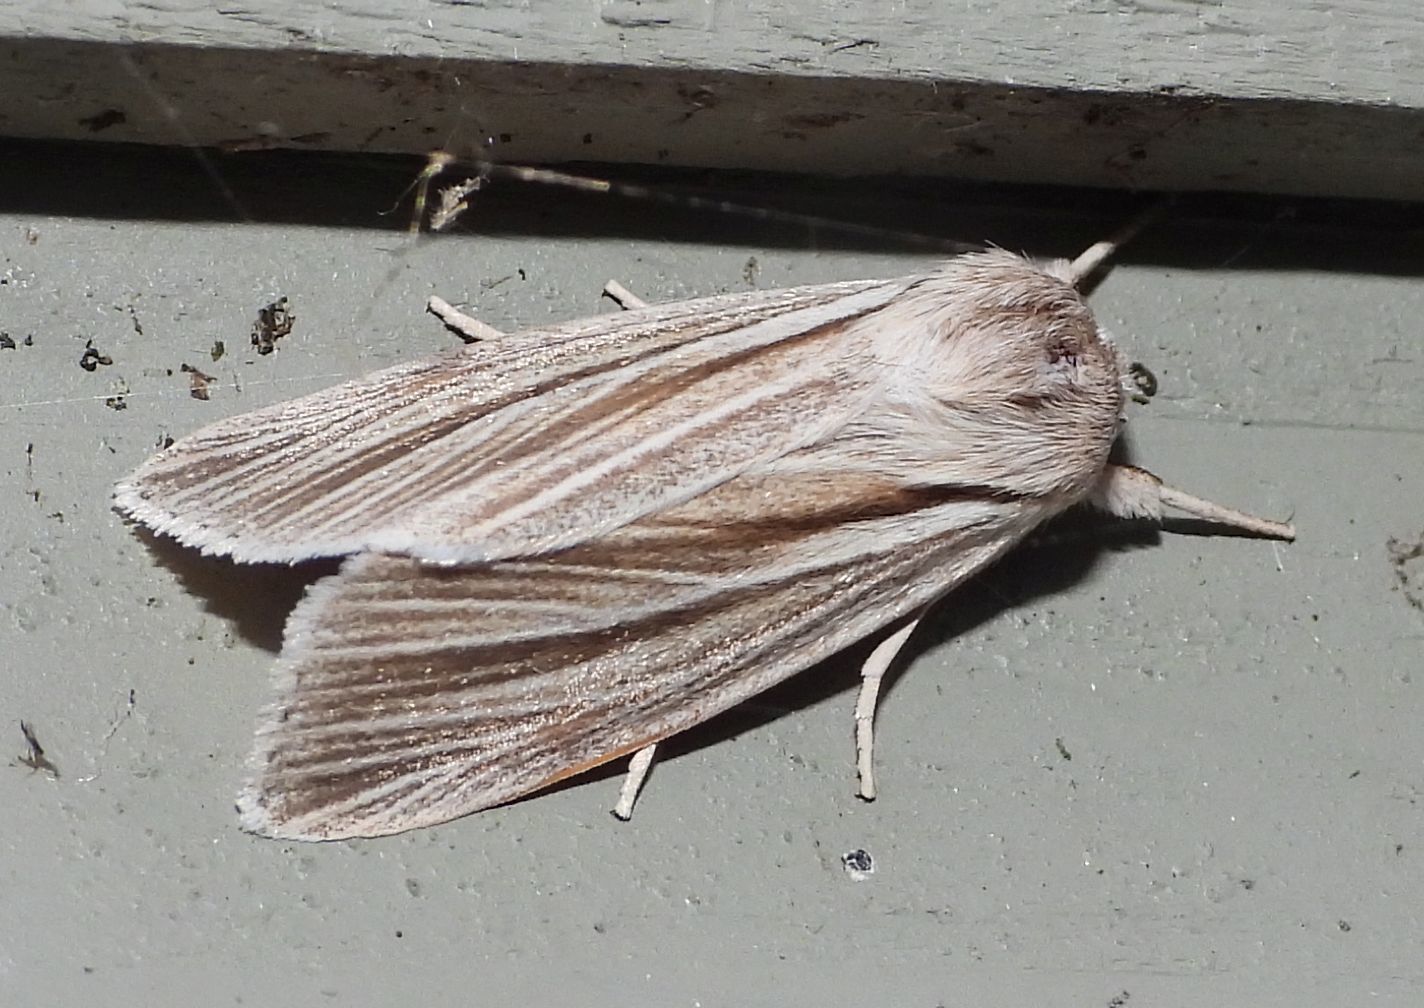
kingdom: Animalia
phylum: Arthropoda
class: Insecta
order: Lepidoptera
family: Noctuidae
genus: Acronicta
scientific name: Acronicta insularis
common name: Henry's marsh moth
